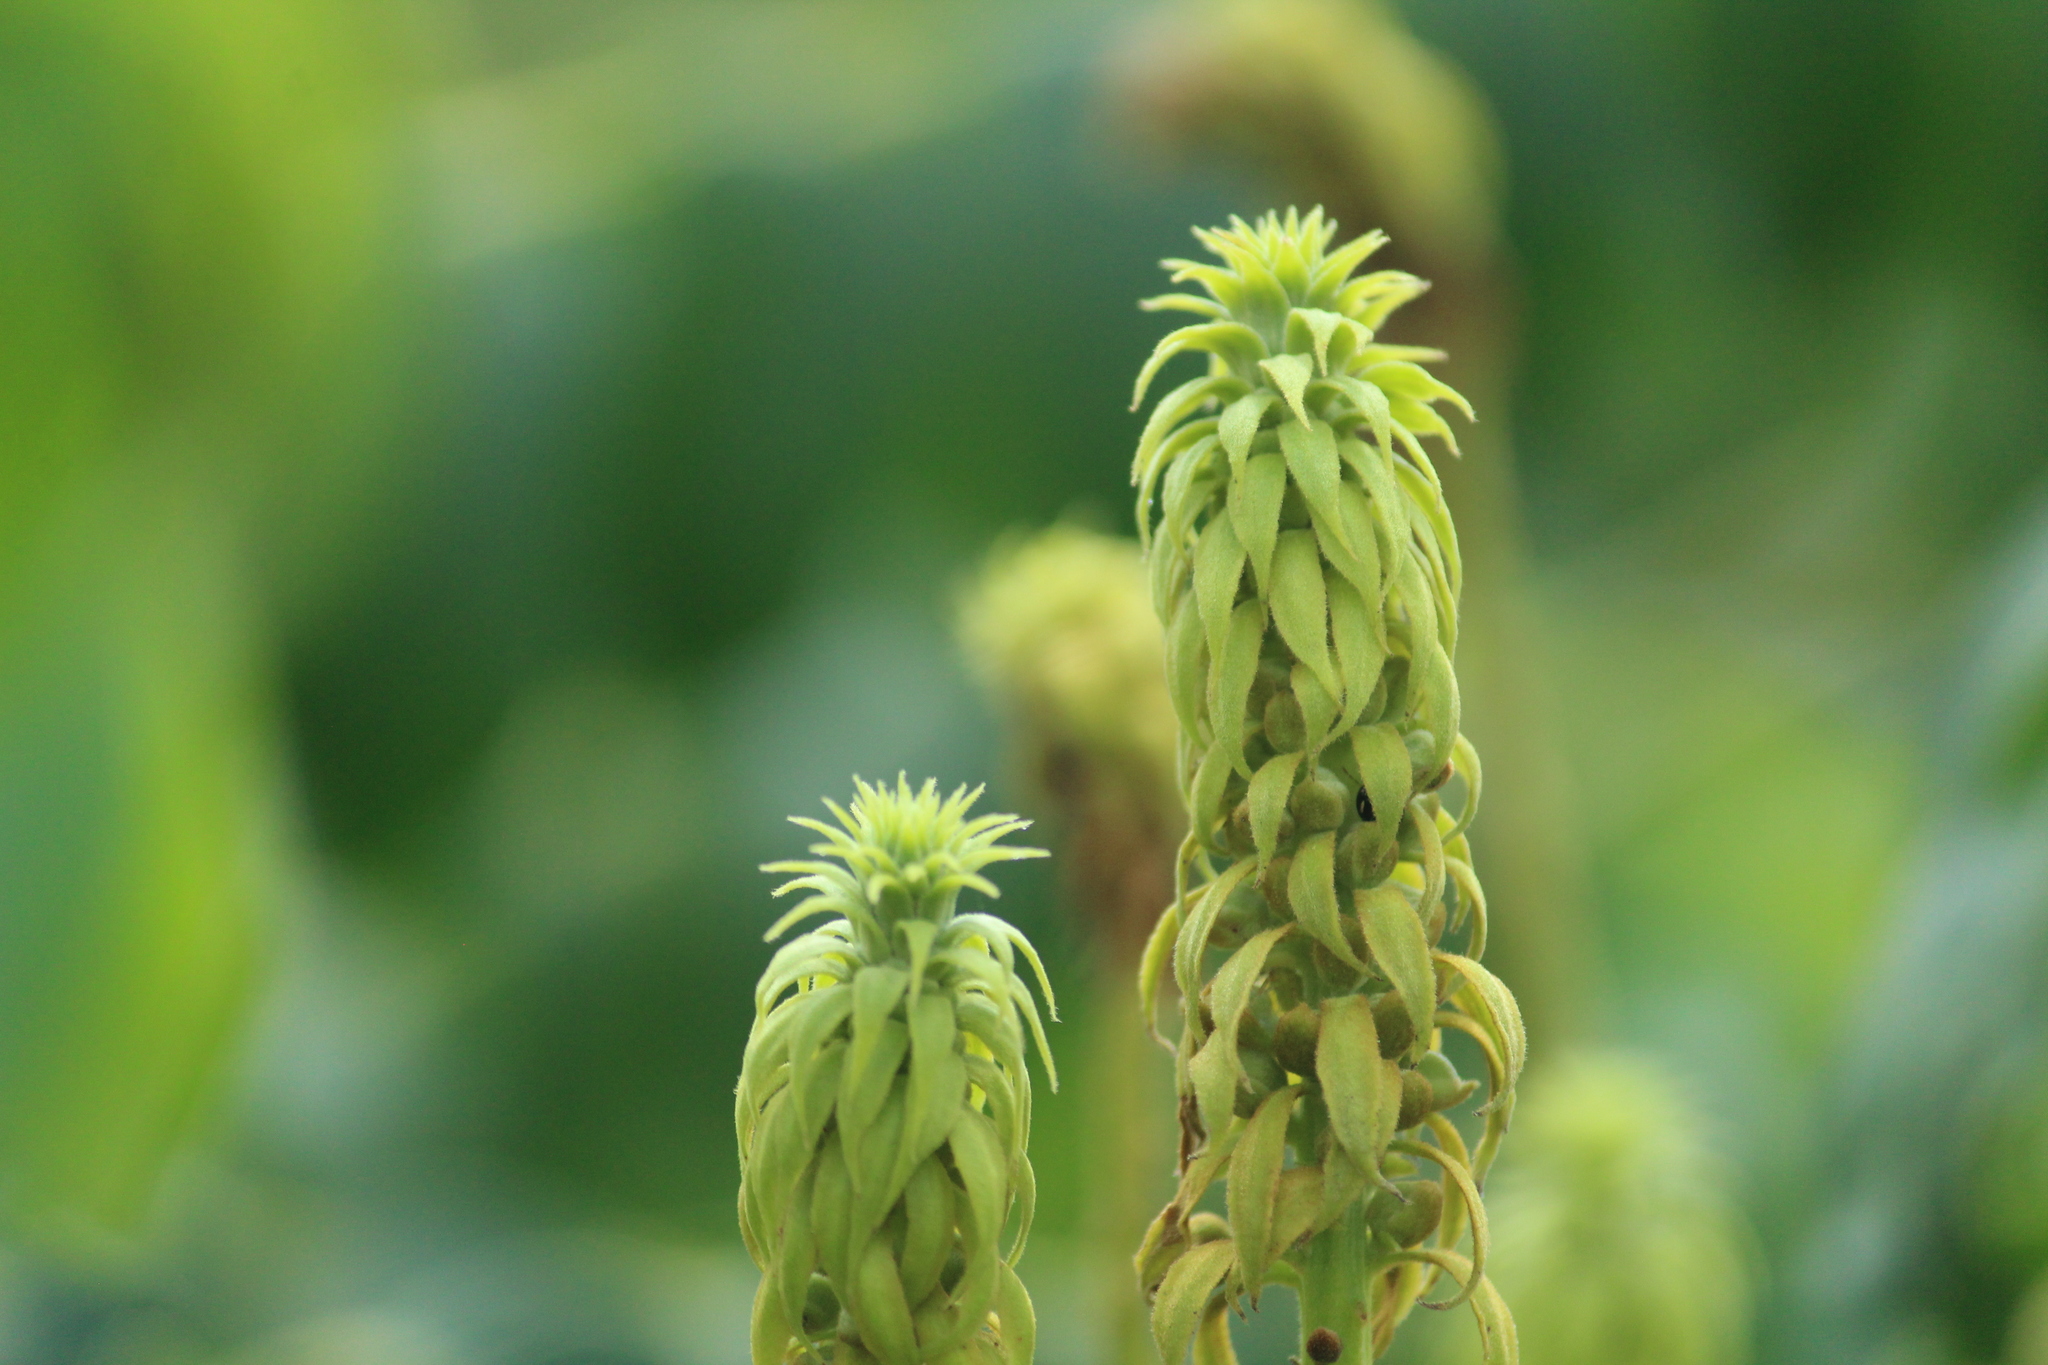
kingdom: Plantae
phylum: Tracheophyta
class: Magnoliopsida
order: Fabales
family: Fabaceae
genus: Guilandina
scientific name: Guilandina bonduc
